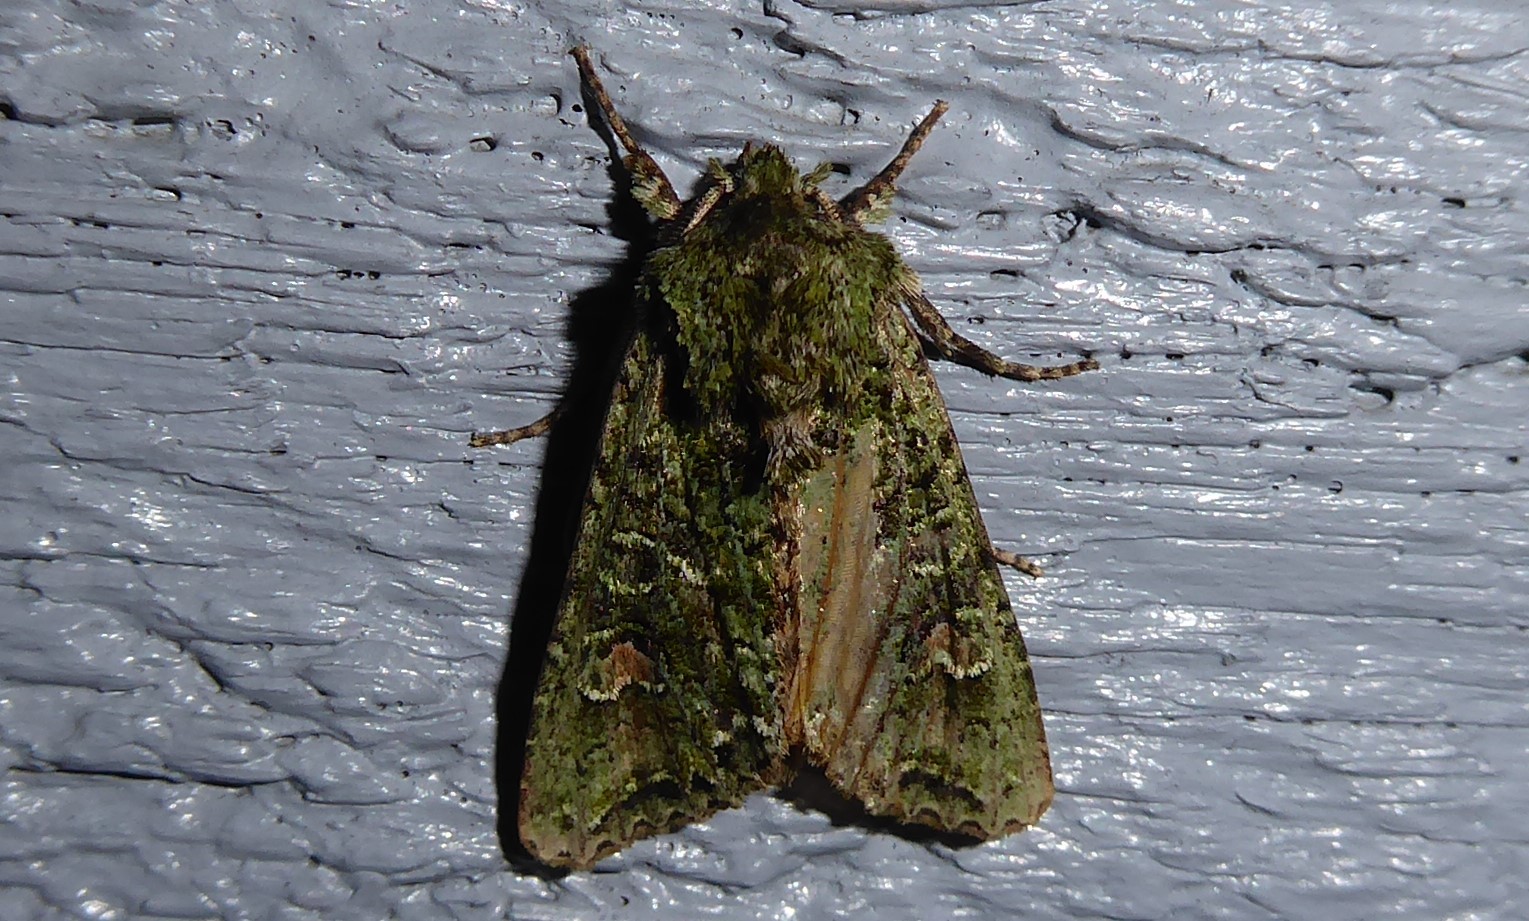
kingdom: Animalia
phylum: Arthropoda
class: Insecta
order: Lepidoptera
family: Noctuidae
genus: Ichneutica
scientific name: Ichneutica
